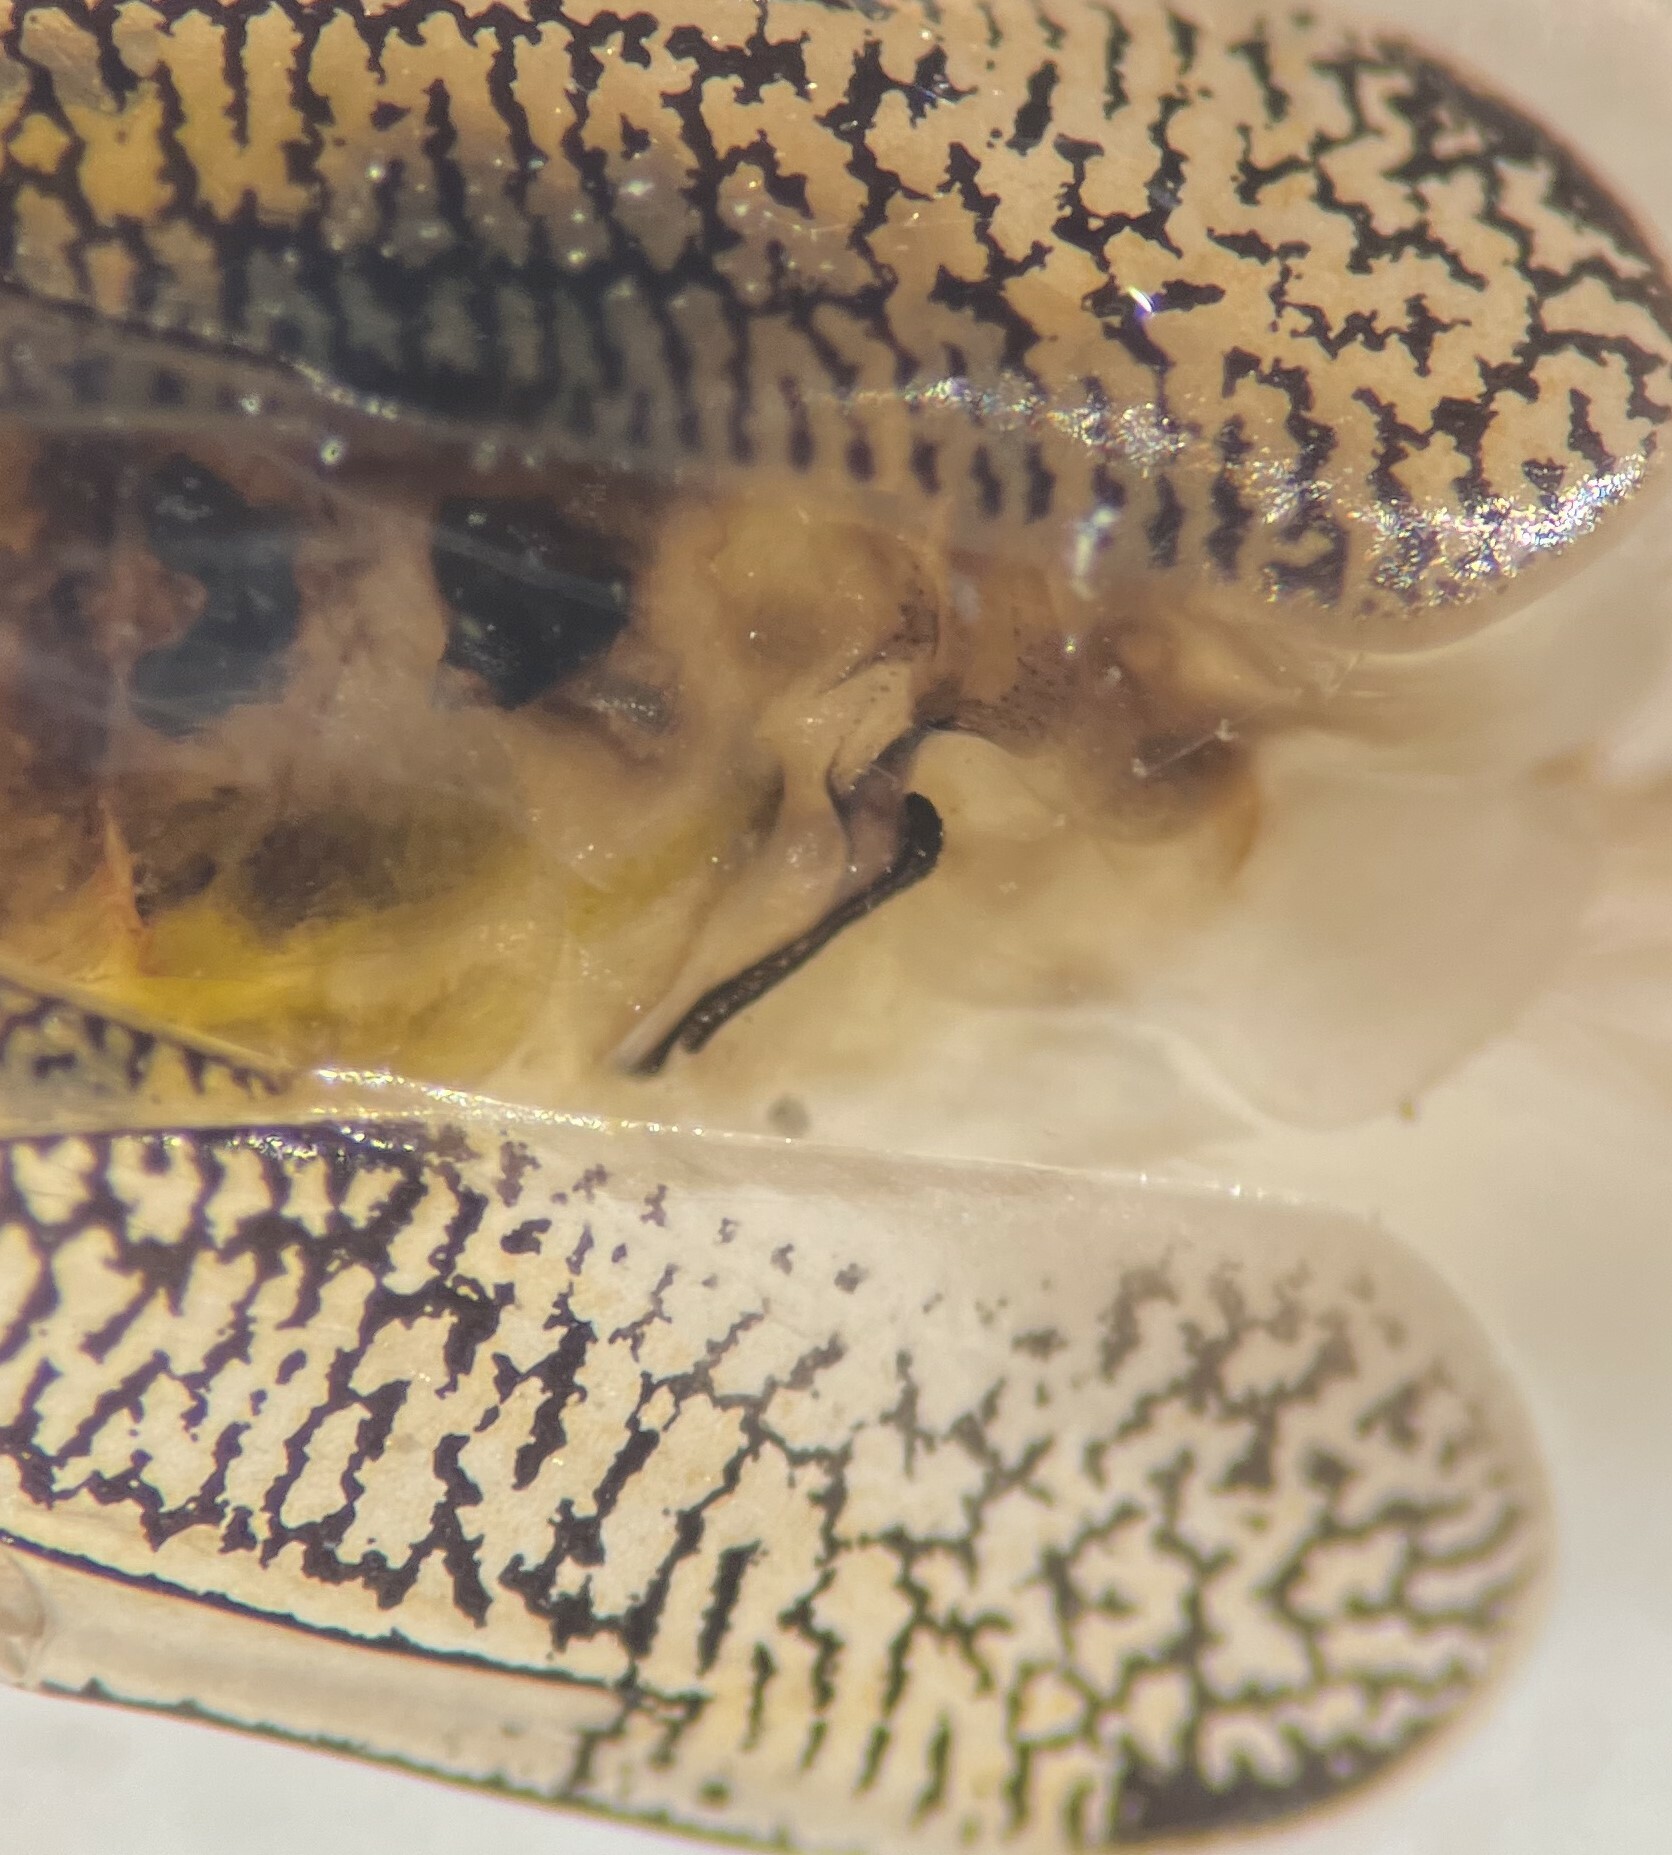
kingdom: Animalia
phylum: Arthropoda
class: Insecta
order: Hemiptera
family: Corixidae
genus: Trichocorixa
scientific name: Trichocorixa calva
